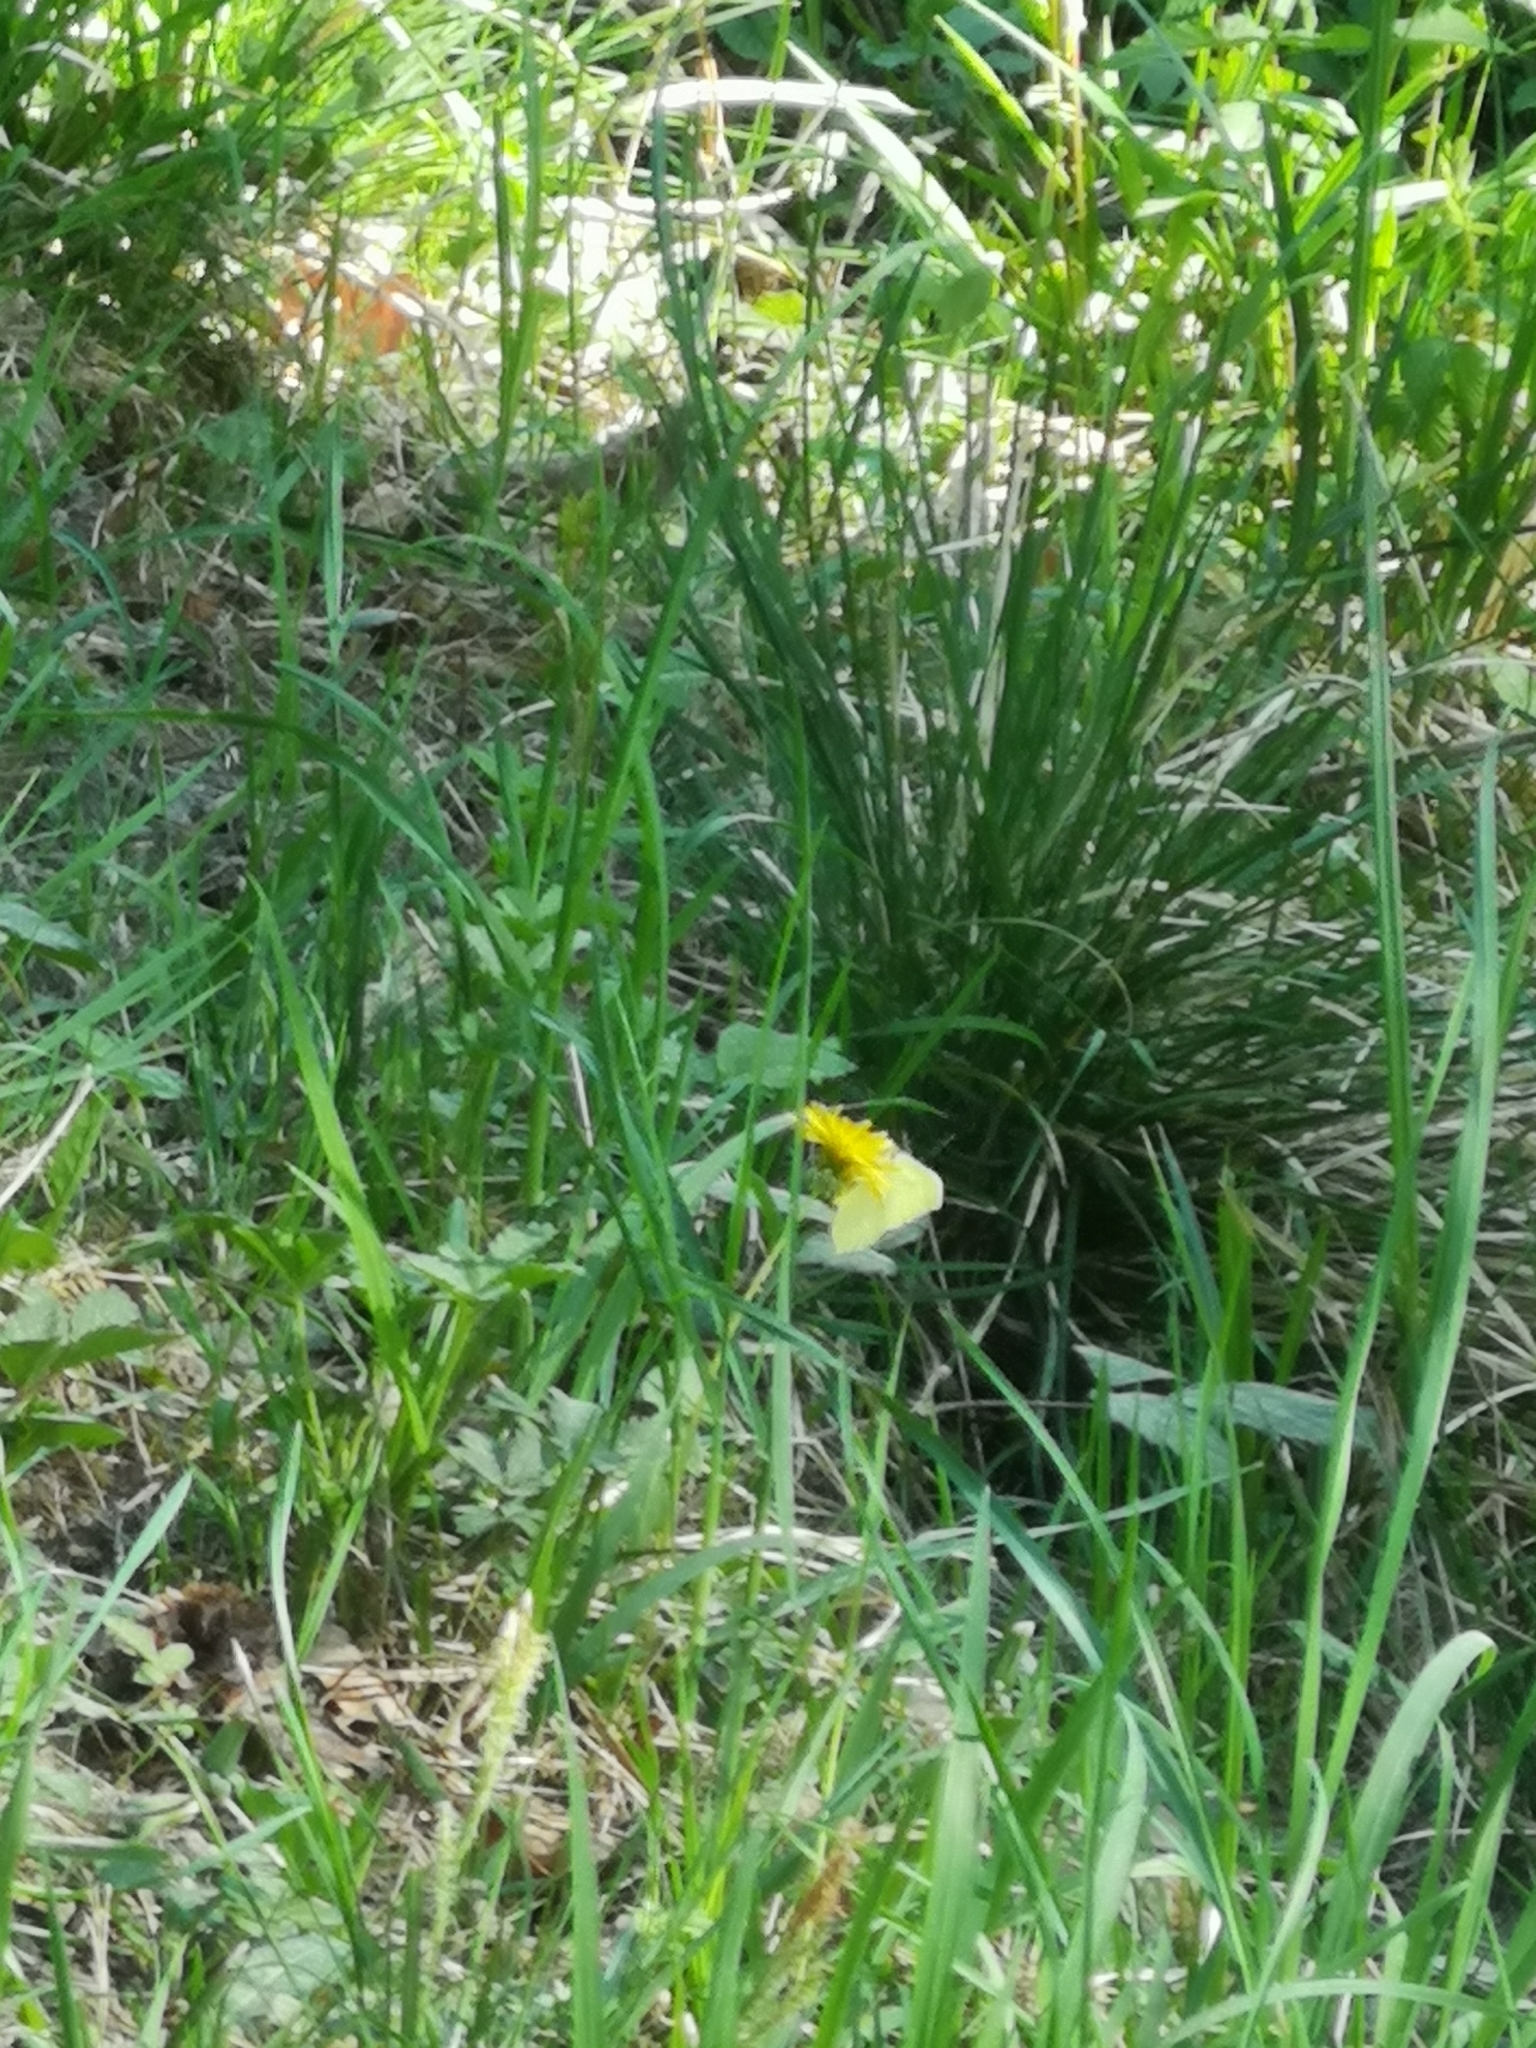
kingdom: Animalia
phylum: Arthropoda
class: Insecta
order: Lepidoptera
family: Pieridae
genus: Gonepteryx
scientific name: Gonepteryx rhamni
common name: Brimstone
